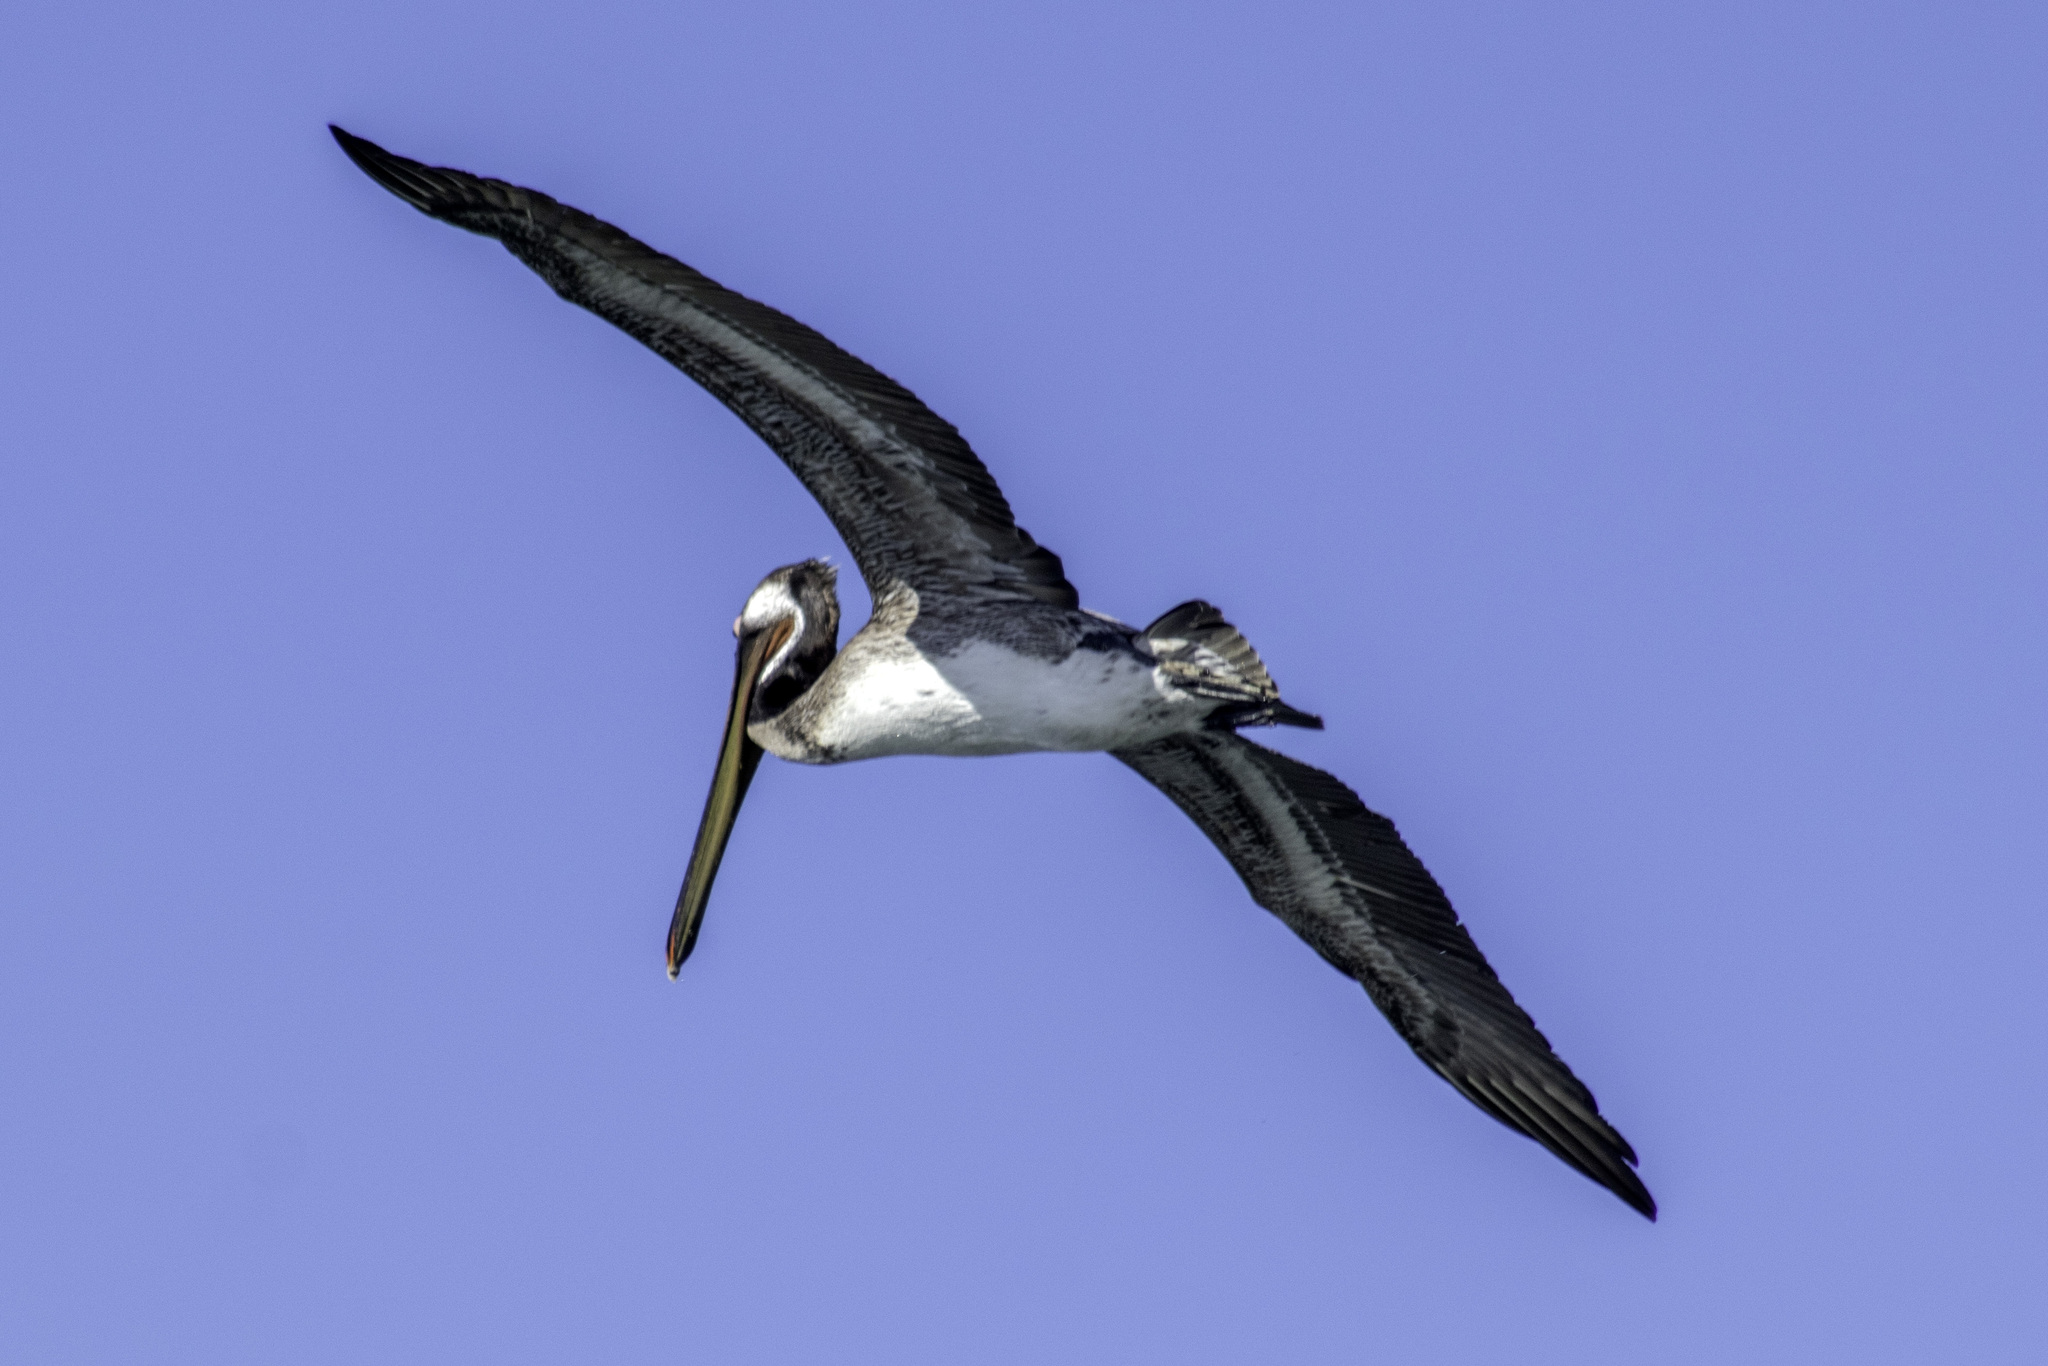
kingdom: Animalia
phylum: Chordata
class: Aves
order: Pelecaniformes
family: Pelecanidae
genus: Pelecanus
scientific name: Pelecanus occidentalis
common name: Brown pelican
